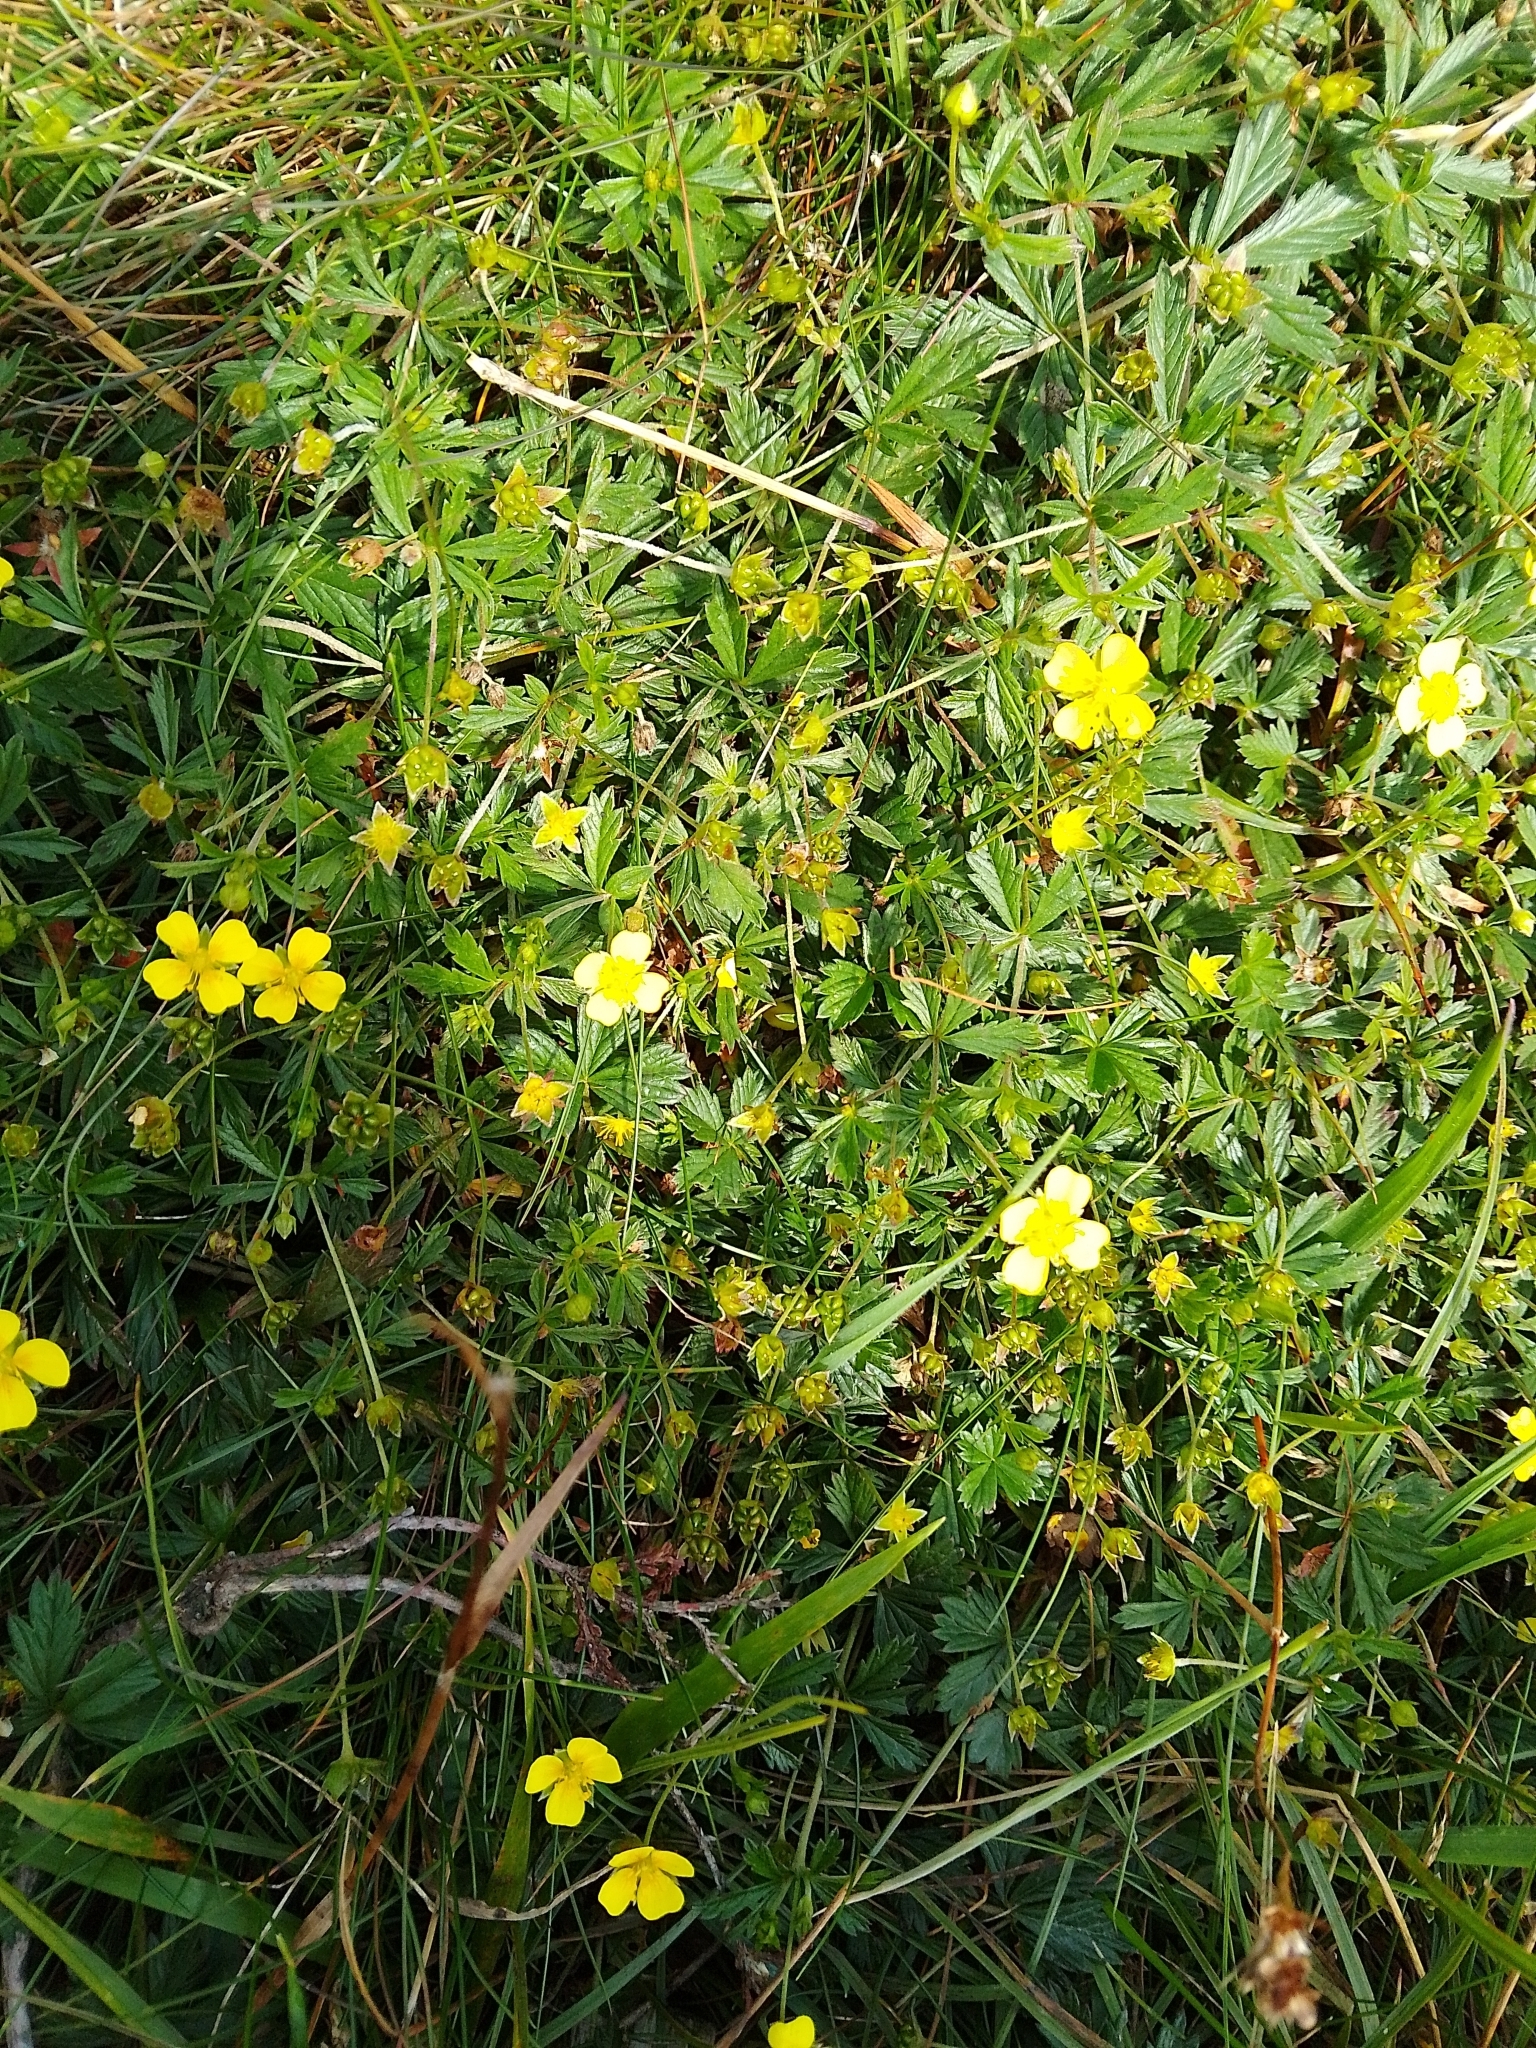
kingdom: Plantae
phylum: Tracheophyta
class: Magnoliopsida
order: Rosales
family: Rosaceae
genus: Potentilla
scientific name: Potentilla erecta
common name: Tormentil
